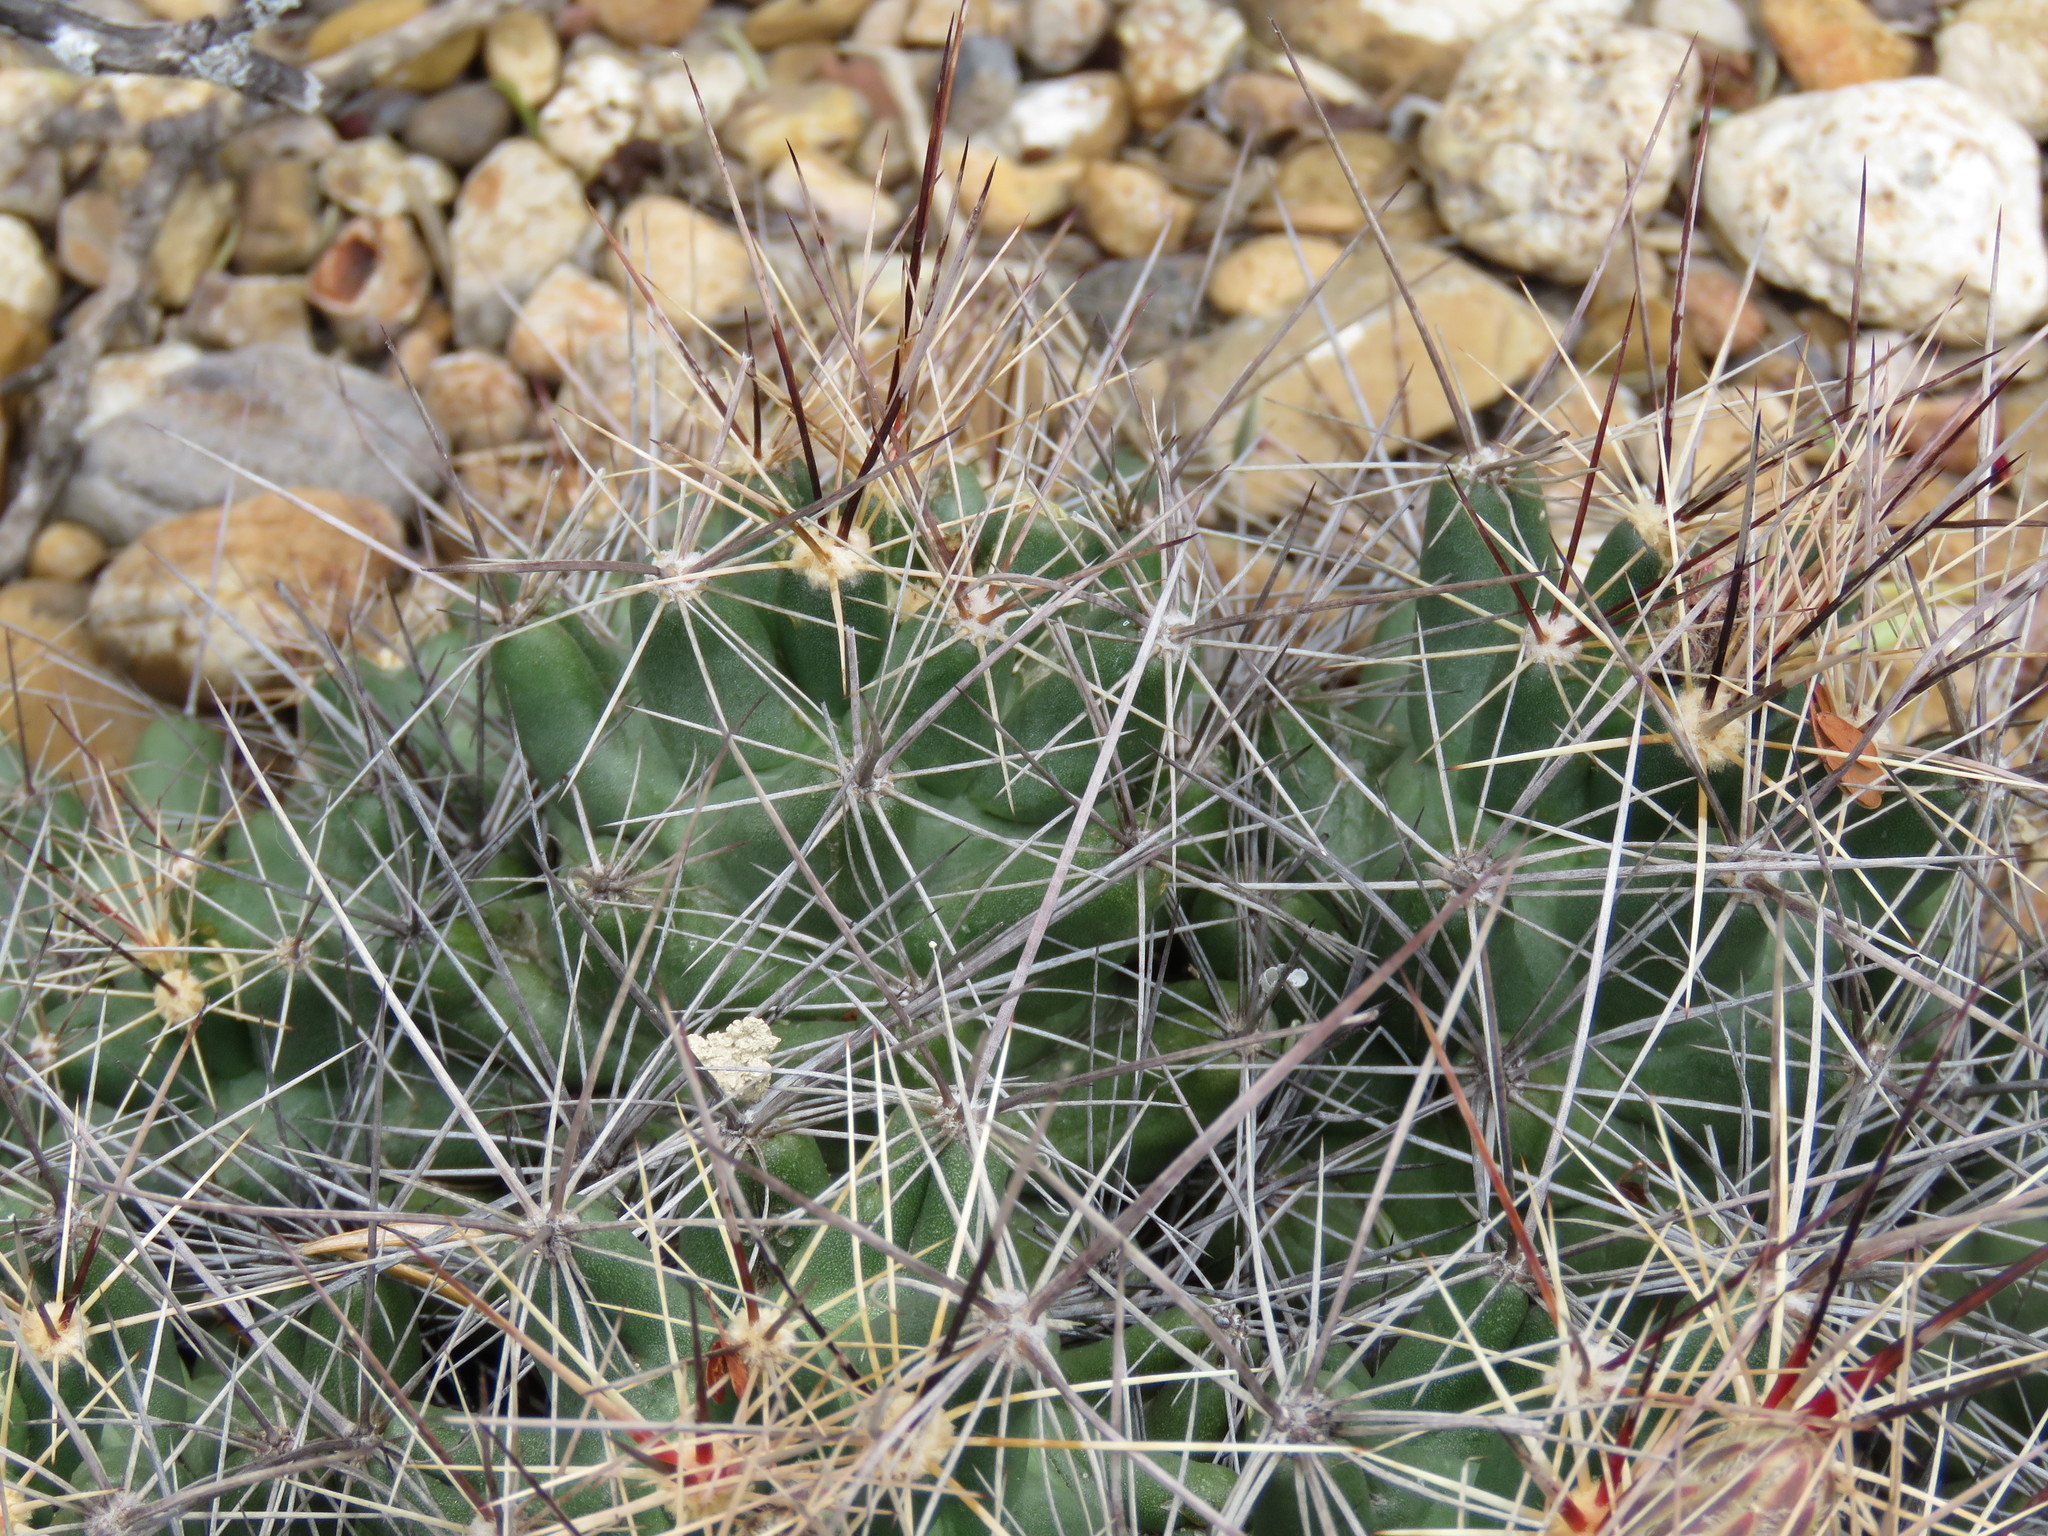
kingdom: Plantae
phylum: Tracheophyta
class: Magnoliopsida
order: Caryophyllales
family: Cactaceae
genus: Coryphantha
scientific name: Coryphantha macromeris
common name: Nipple beehive cactus
